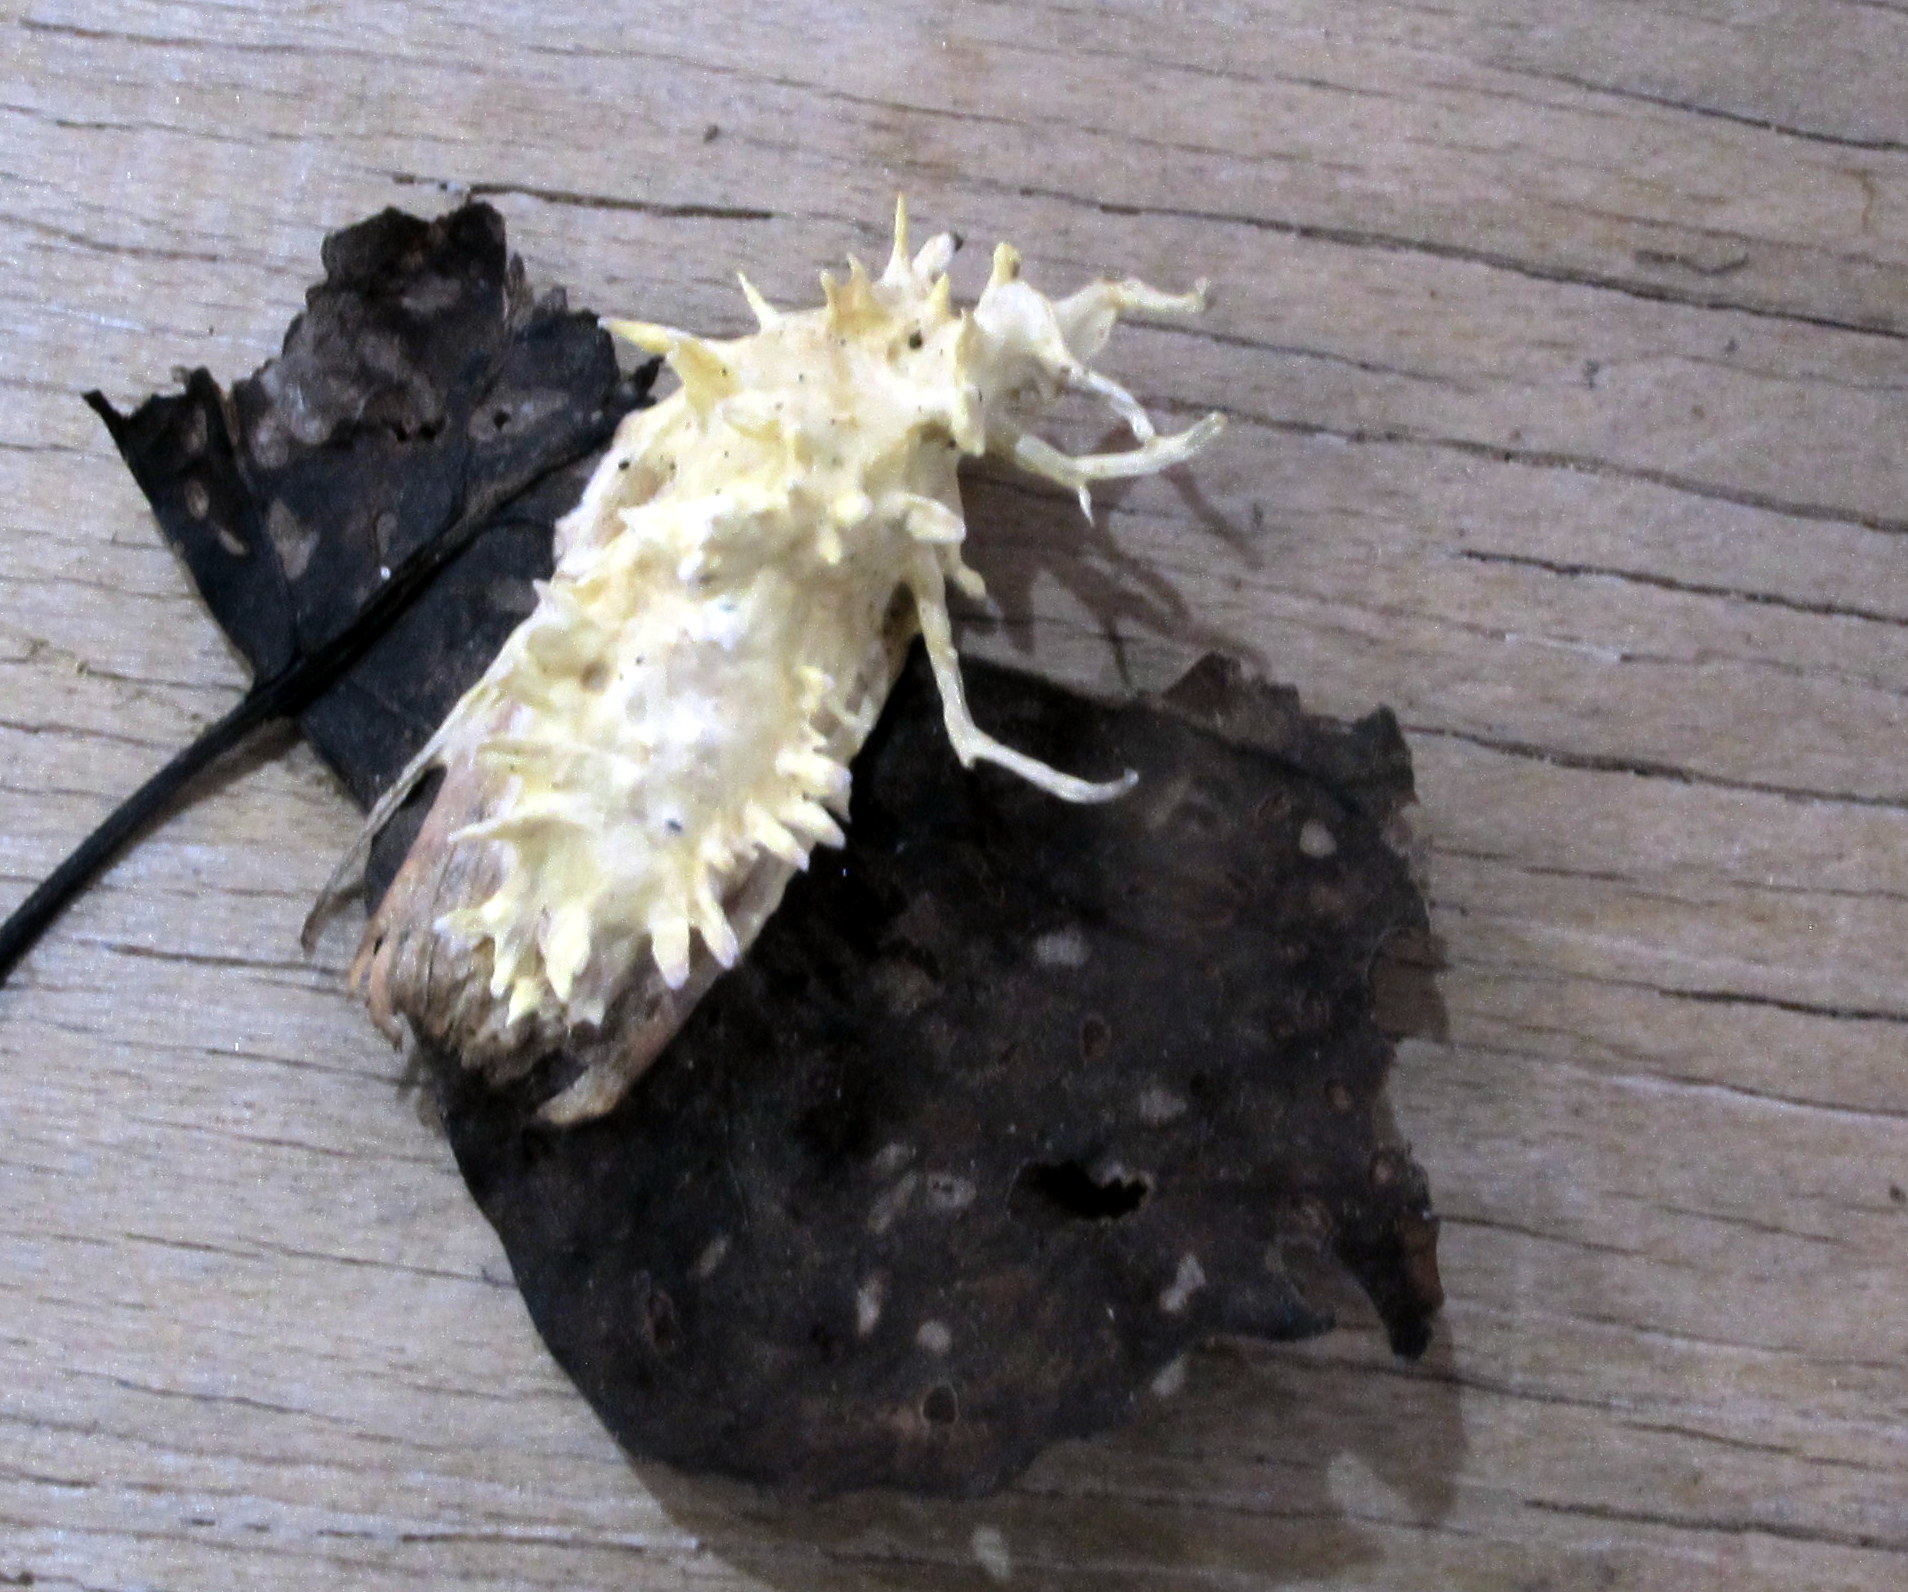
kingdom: Fungi
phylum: Ascomycota
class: Sordariomycetes
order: Hypocreales
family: Cordycipitaceae
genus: Akanthomyces
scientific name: Akanthomyces
